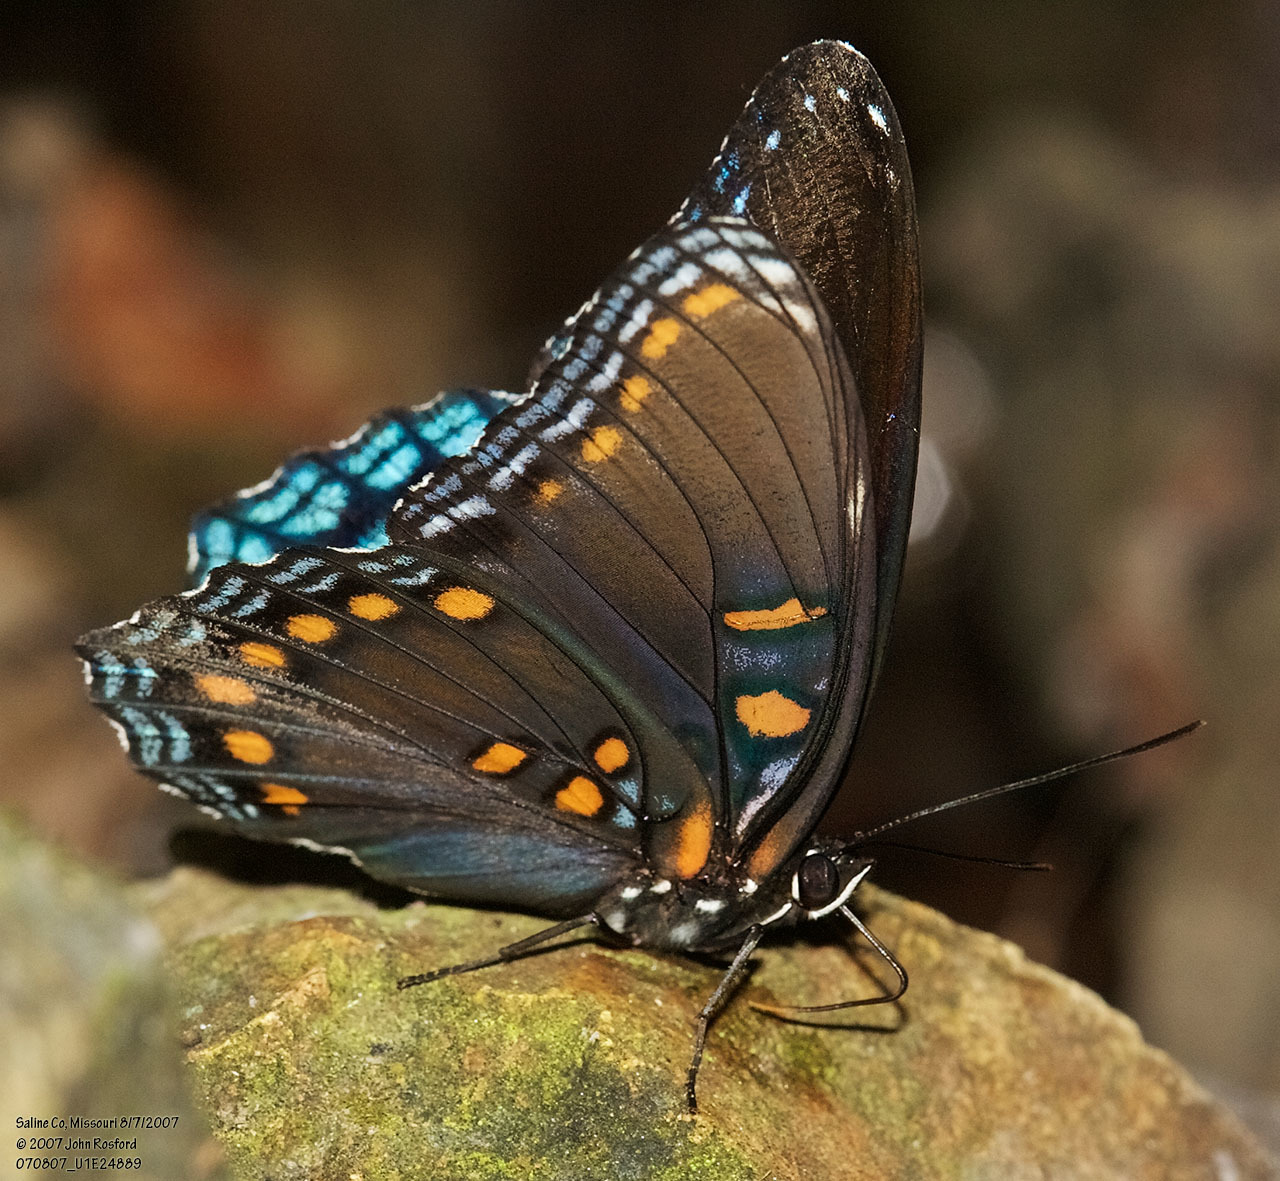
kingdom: Animalia
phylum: Arthropoda
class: Insecta
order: Lepidoptera
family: Nymphalidae
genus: Limenitis
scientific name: Limenitis astyanax
